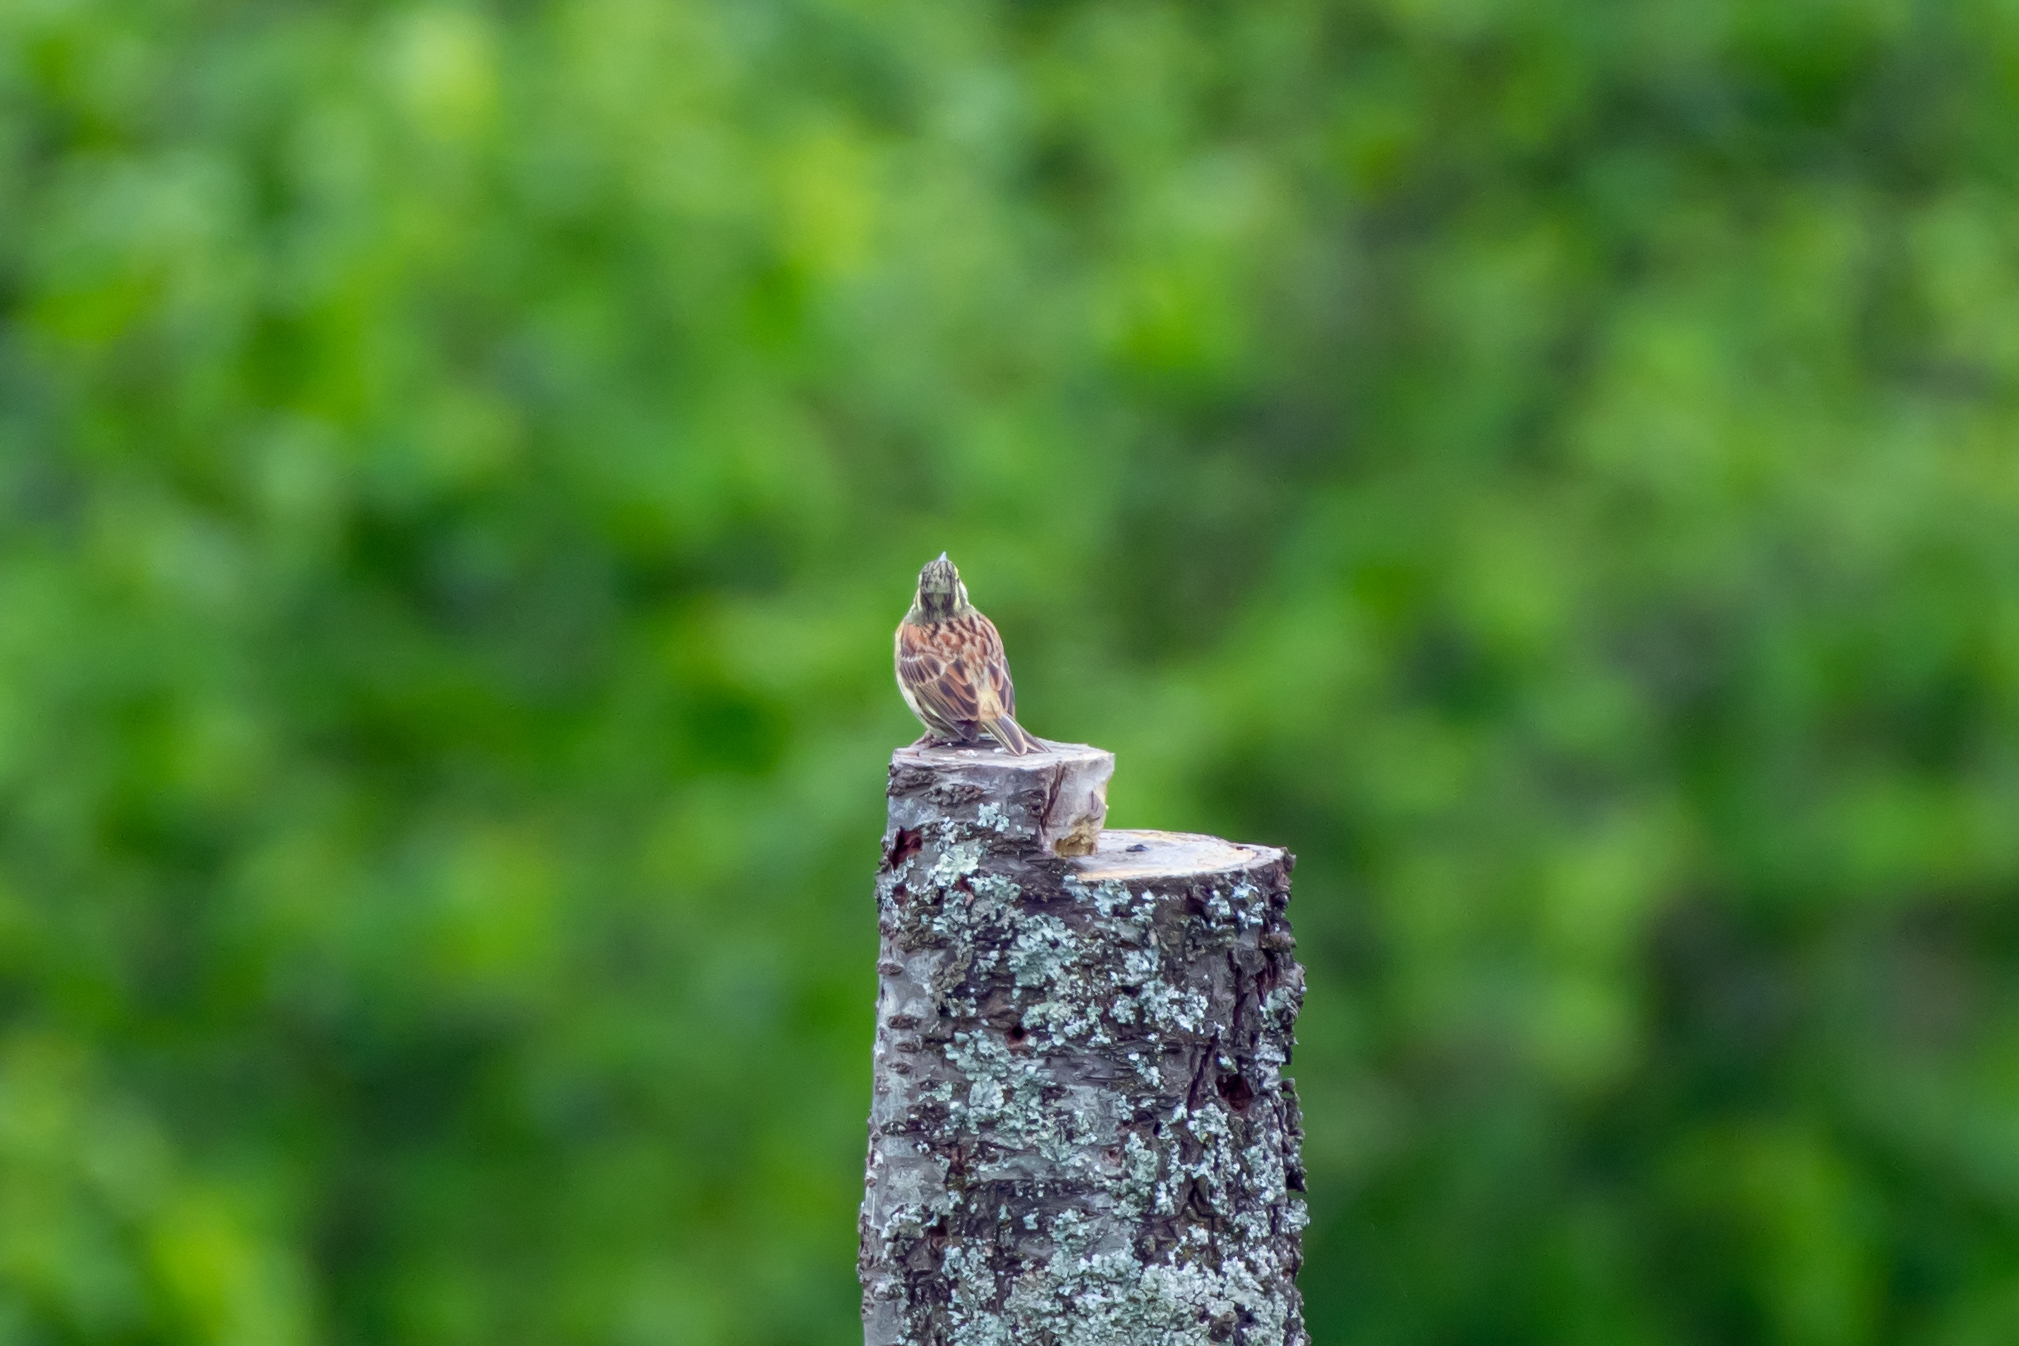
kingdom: Animalia
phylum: Chordata
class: Aves
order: Passeriformes
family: Emberizidae
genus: Emberiza
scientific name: Emberiza cirlus
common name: Cirl bunting
